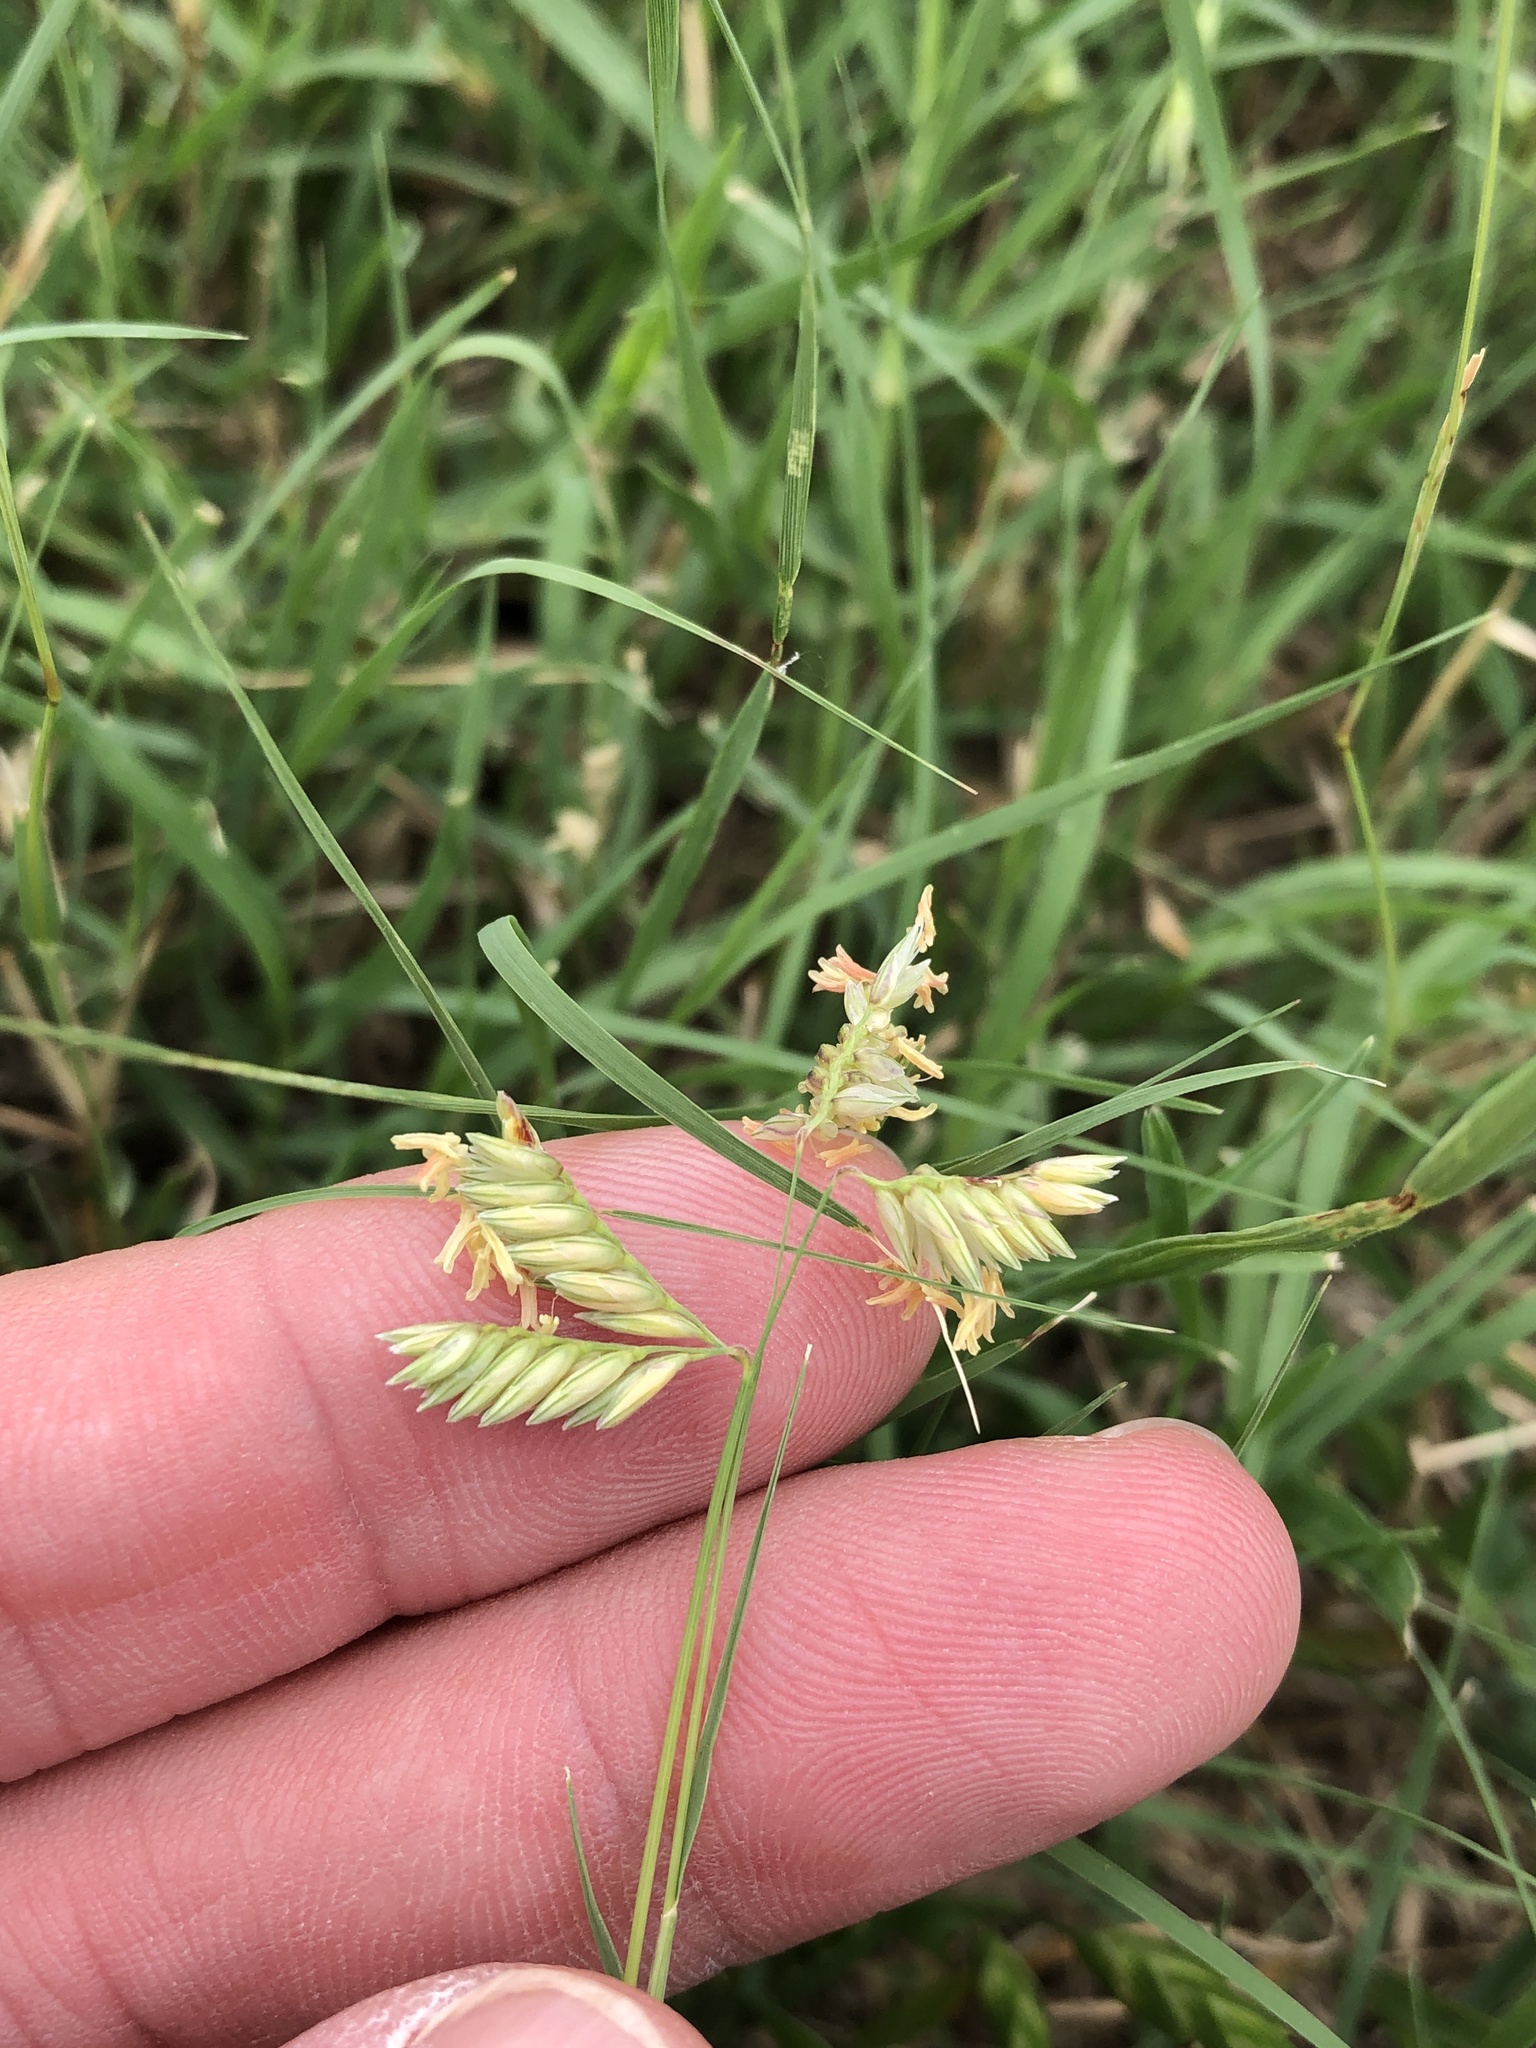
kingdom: Plantae
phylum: Tracheophyta
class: Liliopsida
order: Poales
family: Poaceae
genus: Bouteloua
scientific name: Bouteloua dactyloides
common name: Buffalo grass
